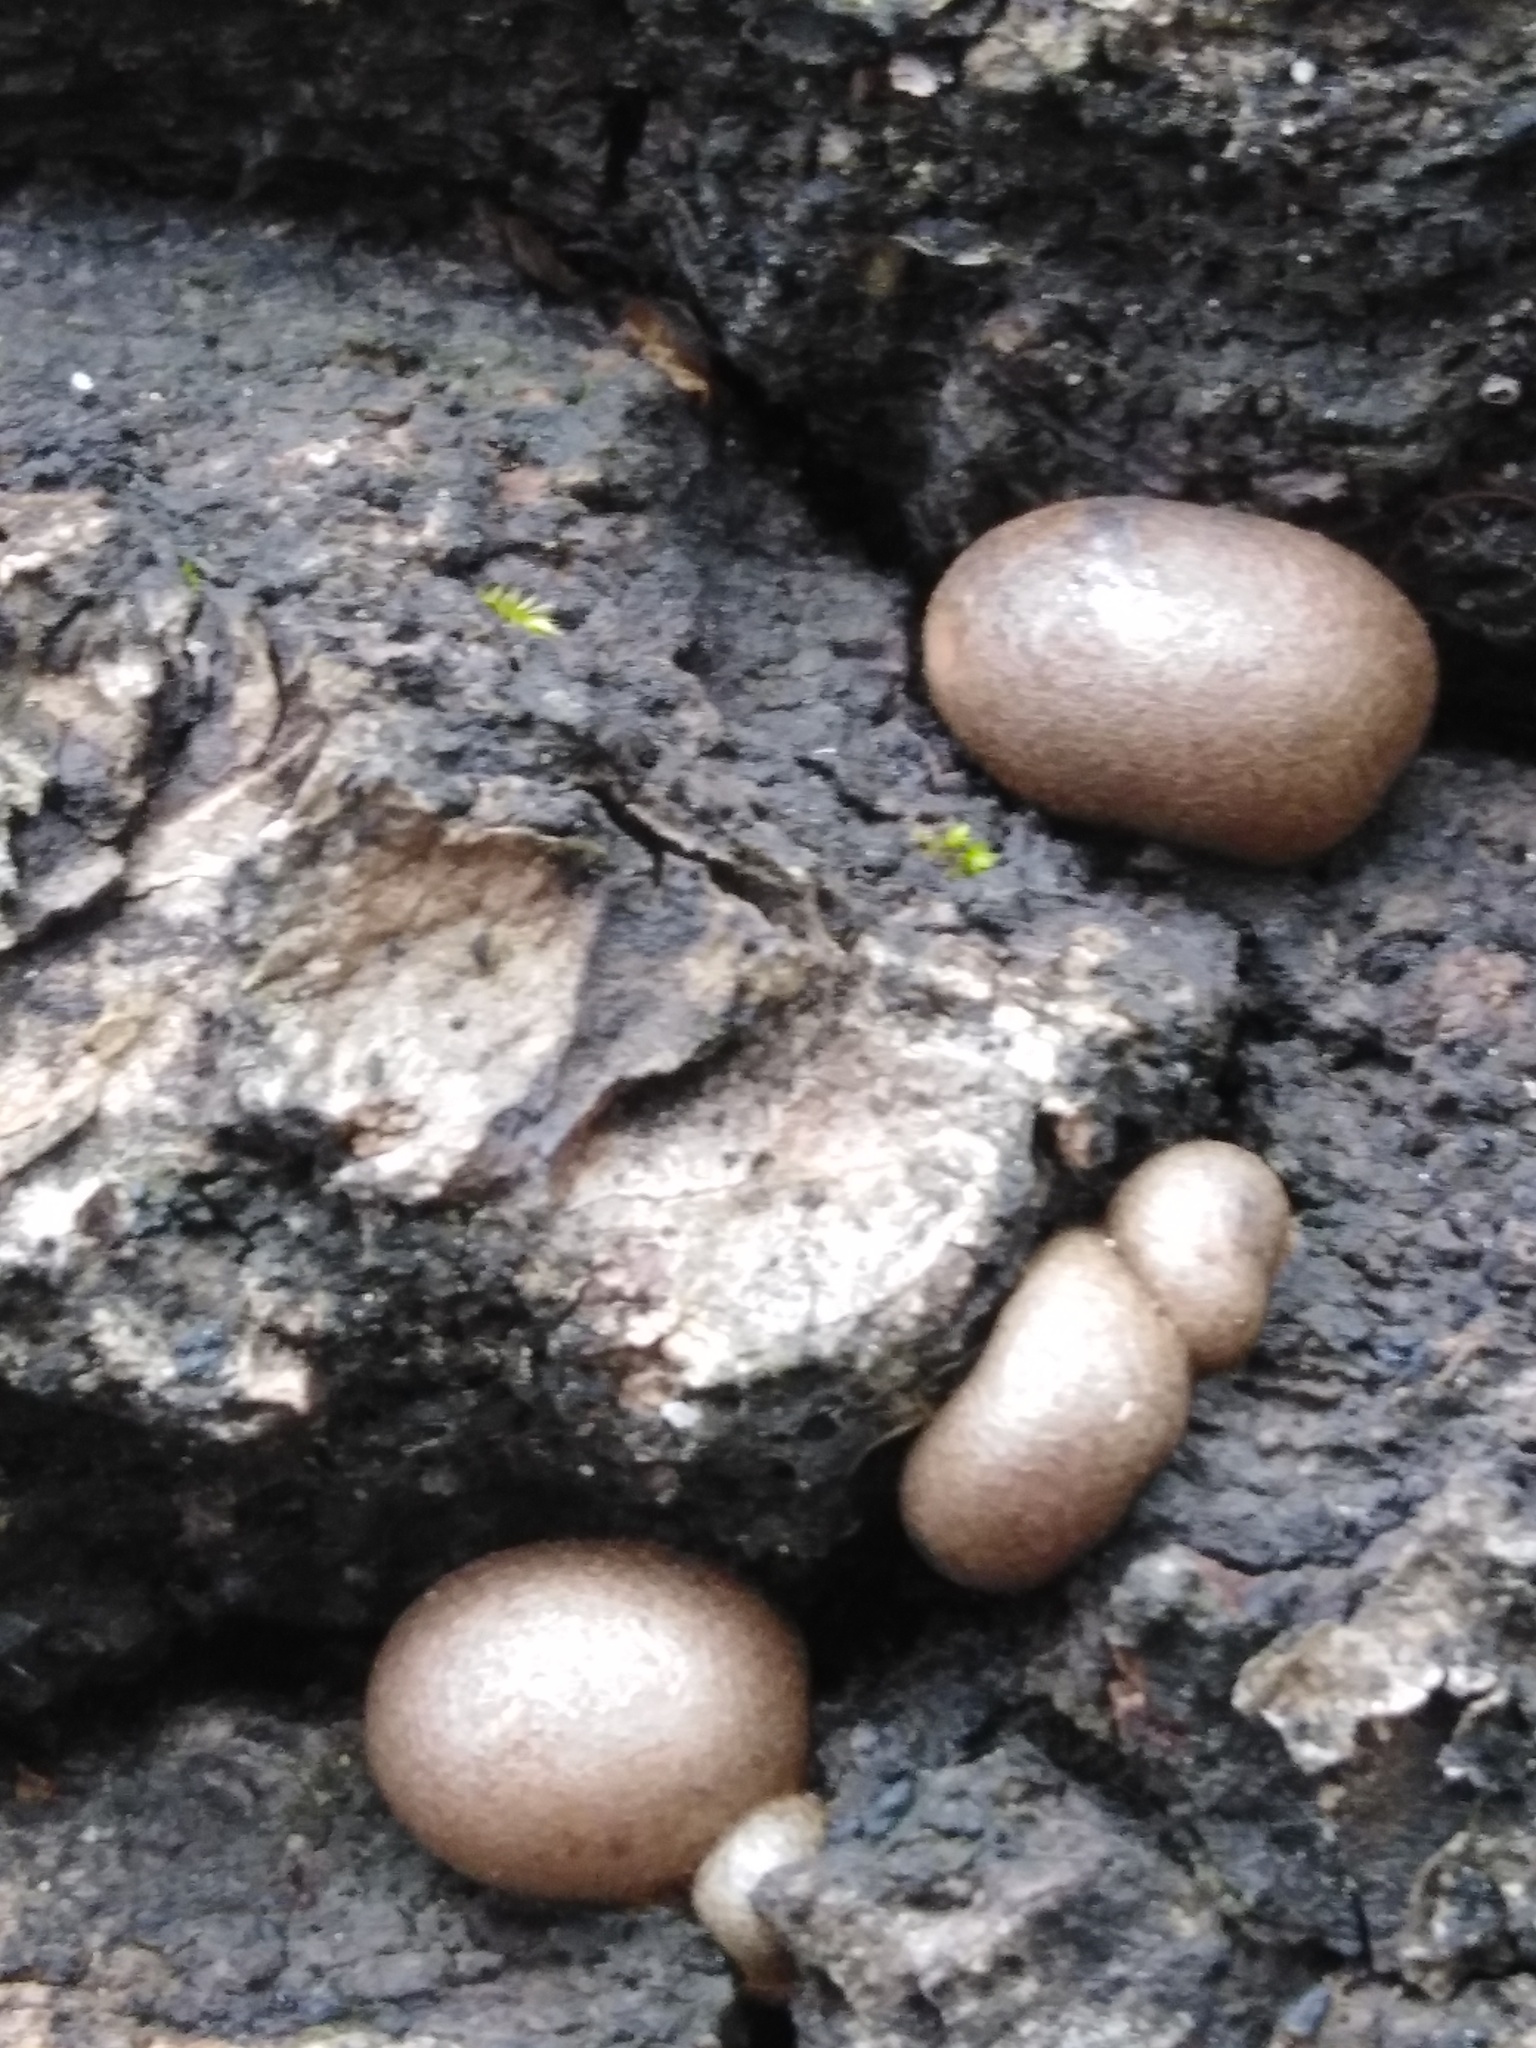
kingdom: Protozoa
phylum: Mycetozoa
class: Myxomycetes
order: Cribrariales
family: Tubiferaceae
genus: Lycogala
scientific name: Lycogala epidendrum
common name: Wolf's milk
